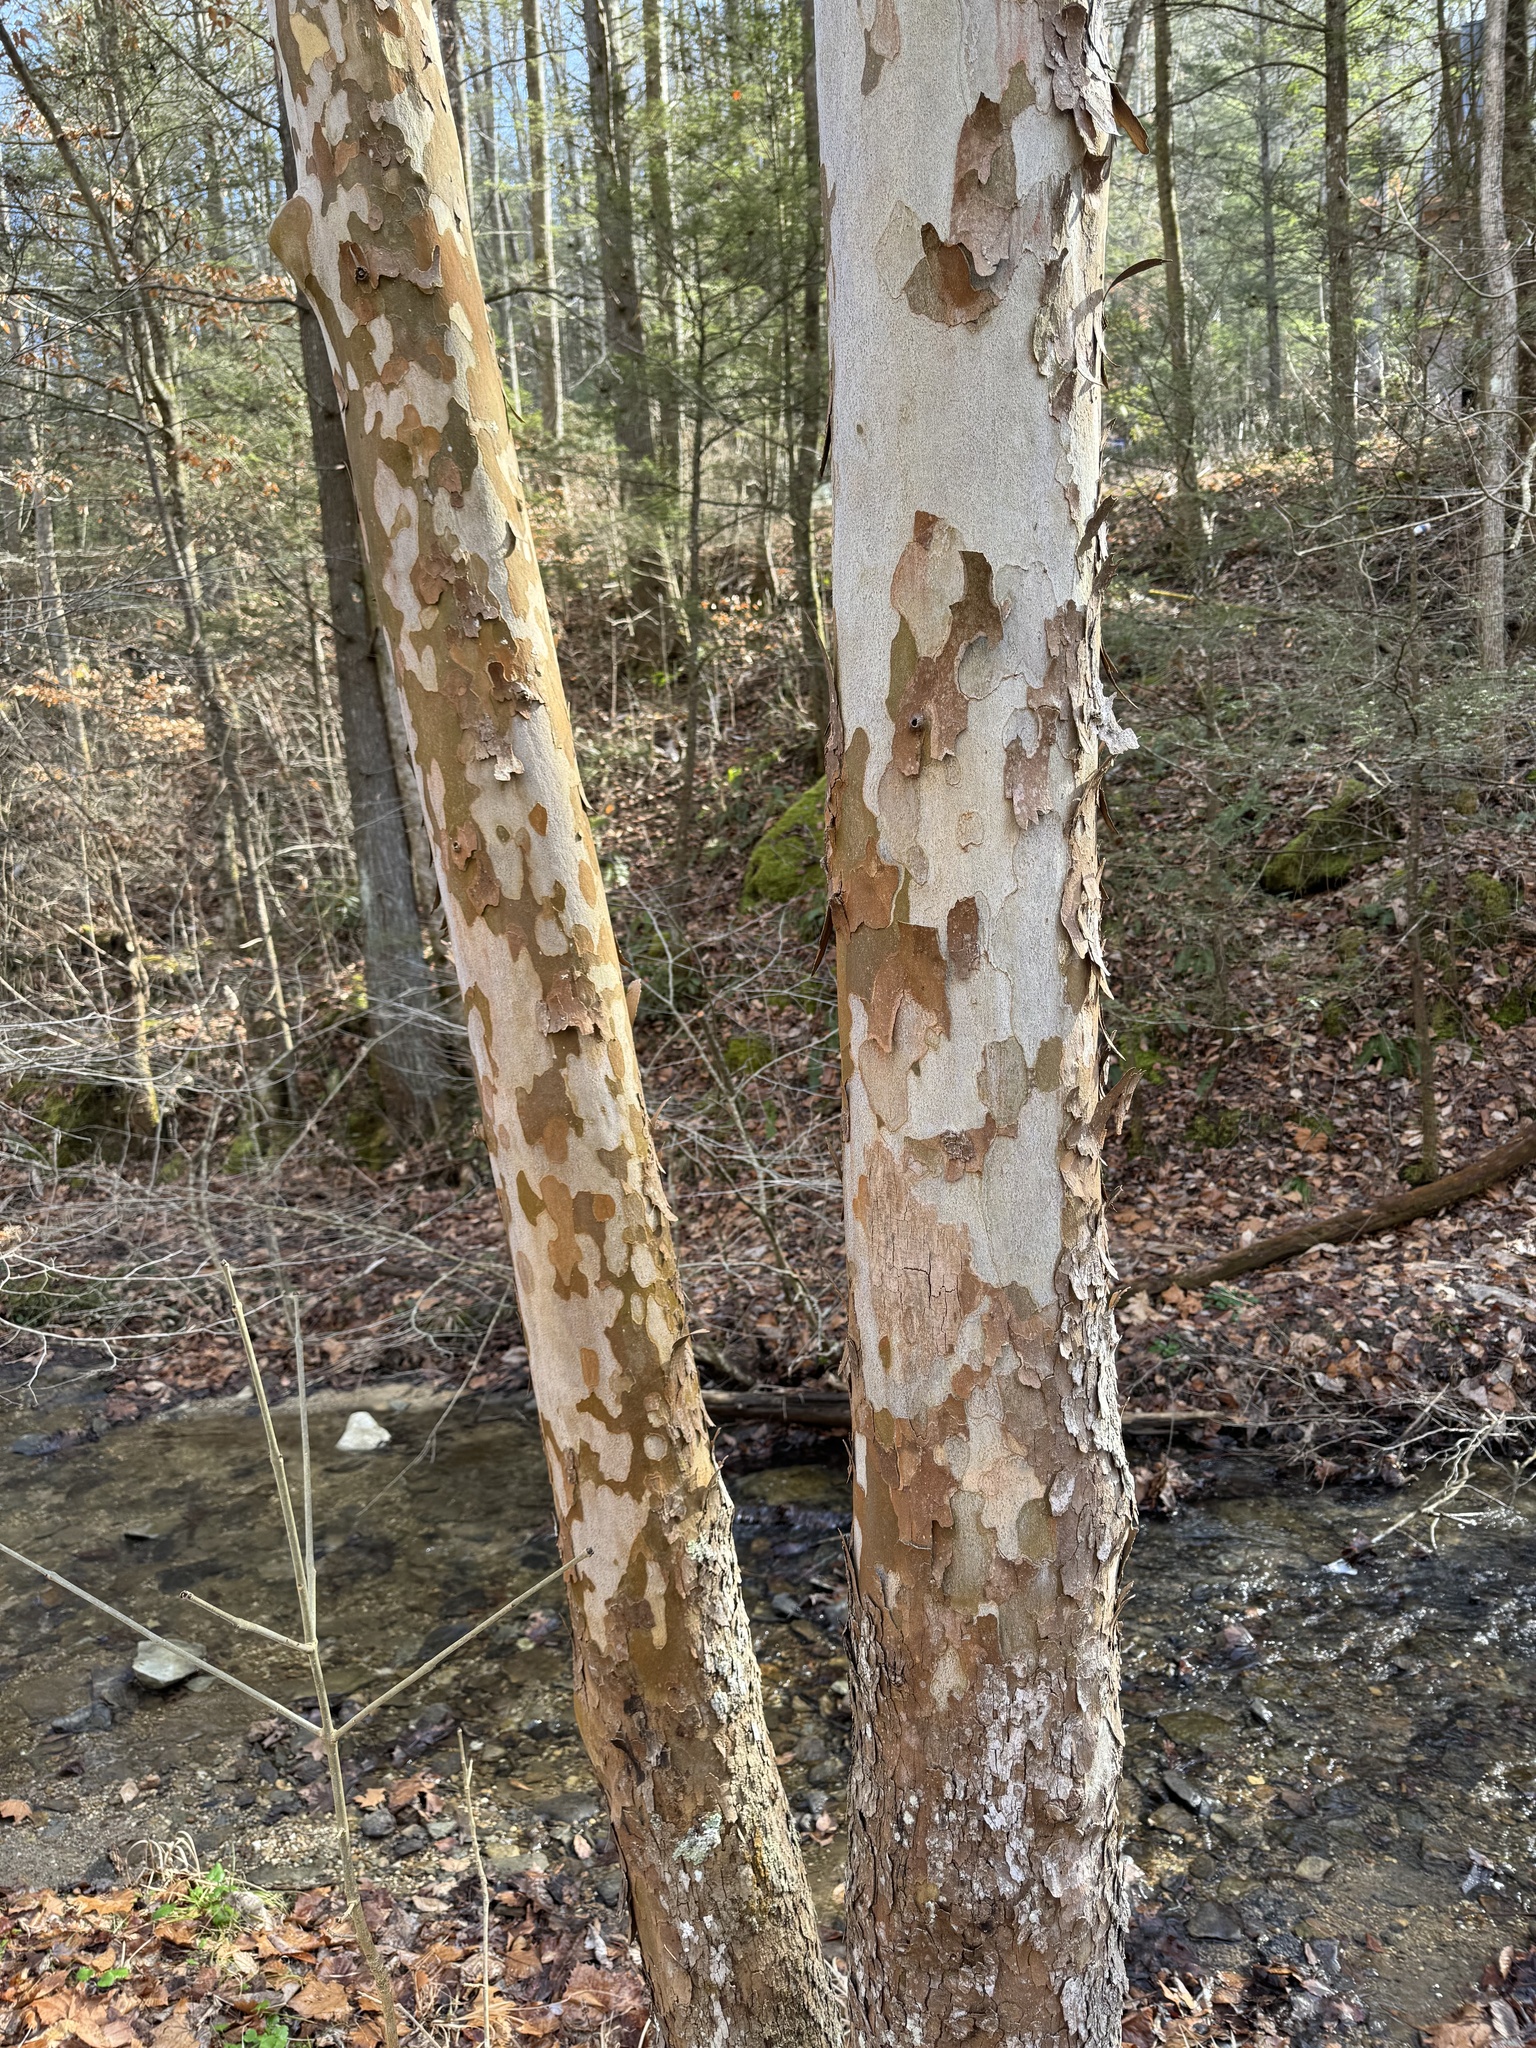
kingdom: Plantae
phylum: Tracheophyta
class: Magnoliopsida
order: Proteales
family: Platanaceae
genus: Platanus
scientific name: Platanus occidentalis
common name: American sycamore
